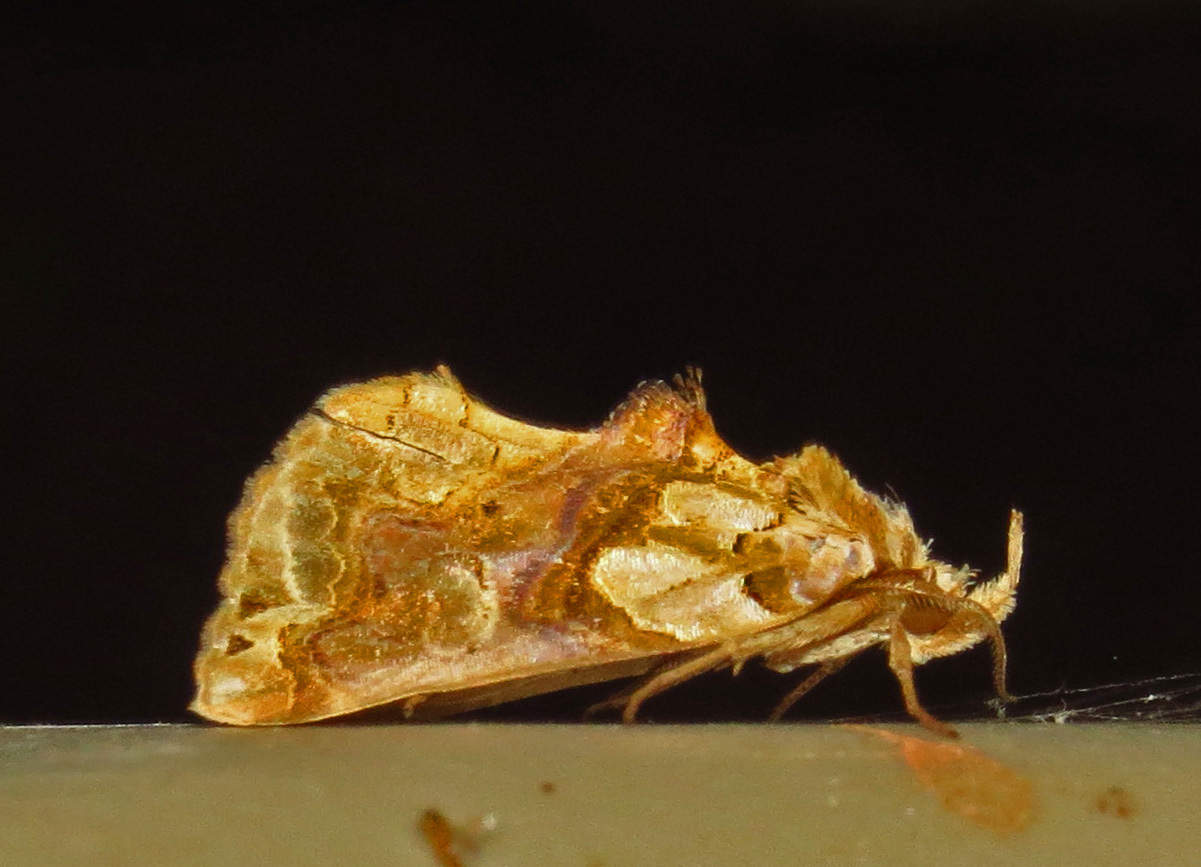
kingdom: Animalia
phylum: Arthropoda
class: Insecta
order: Lepidoptera
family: Erebidae
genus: Plusiodonta
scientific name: Plusiodonta compressipalpis
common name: Moonseed moth
